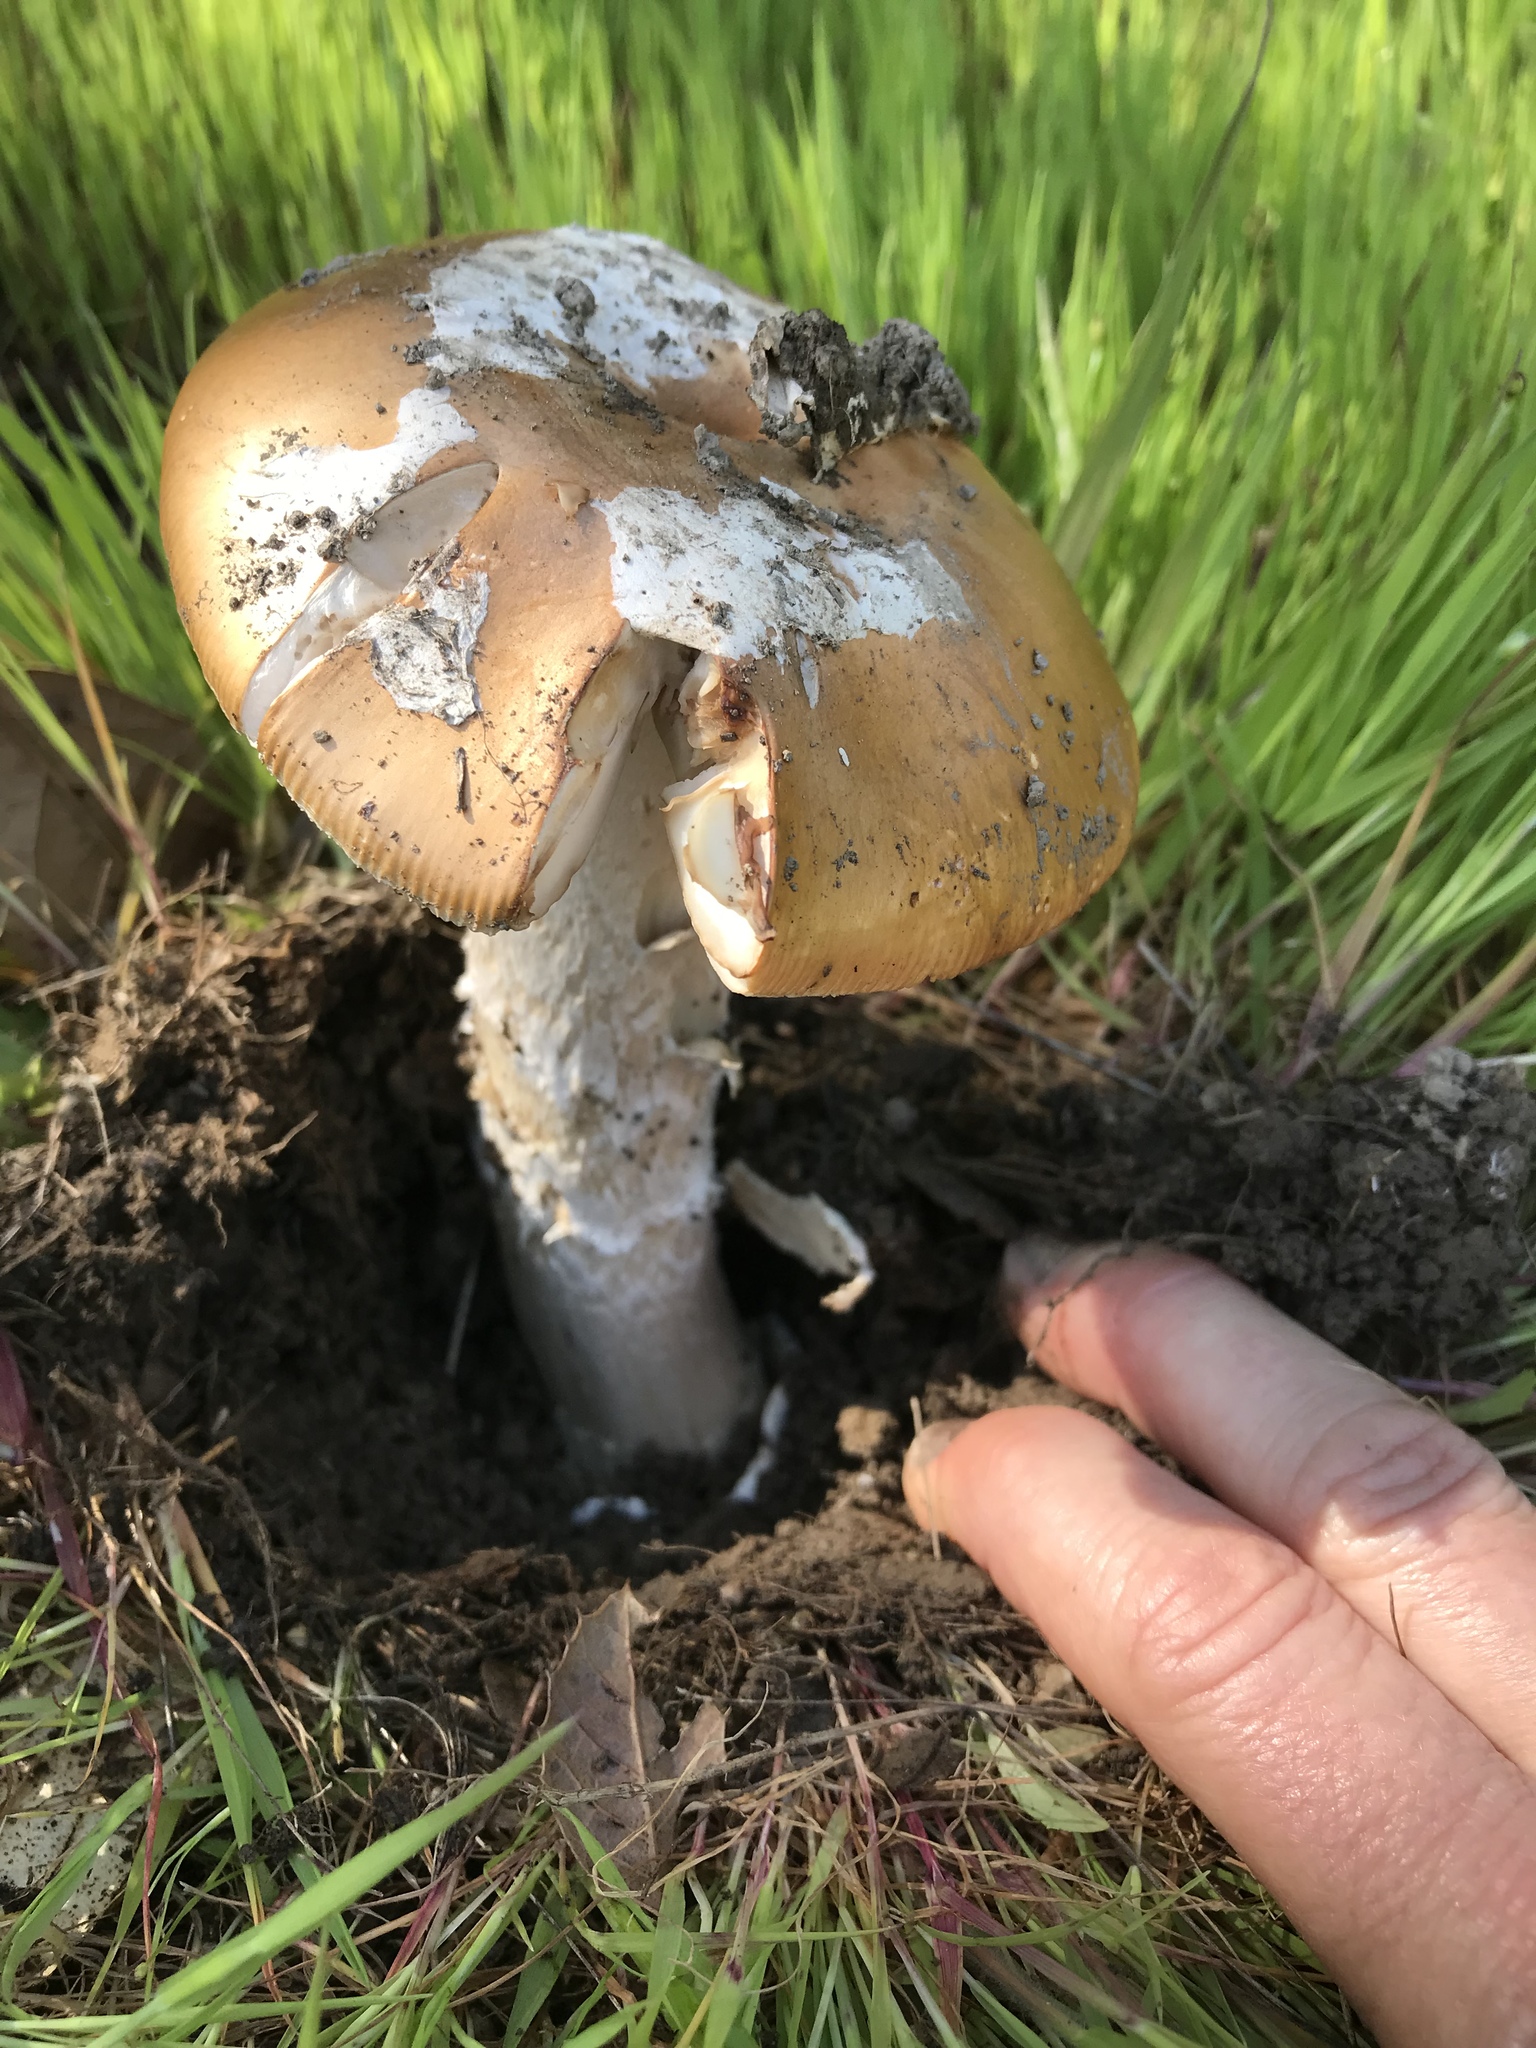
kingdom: Fungi
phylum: Basidiomycota
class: Agaricomycetes
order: Agaricales
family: Amanitaceae
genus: Amanita
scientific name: Amanita velosa
